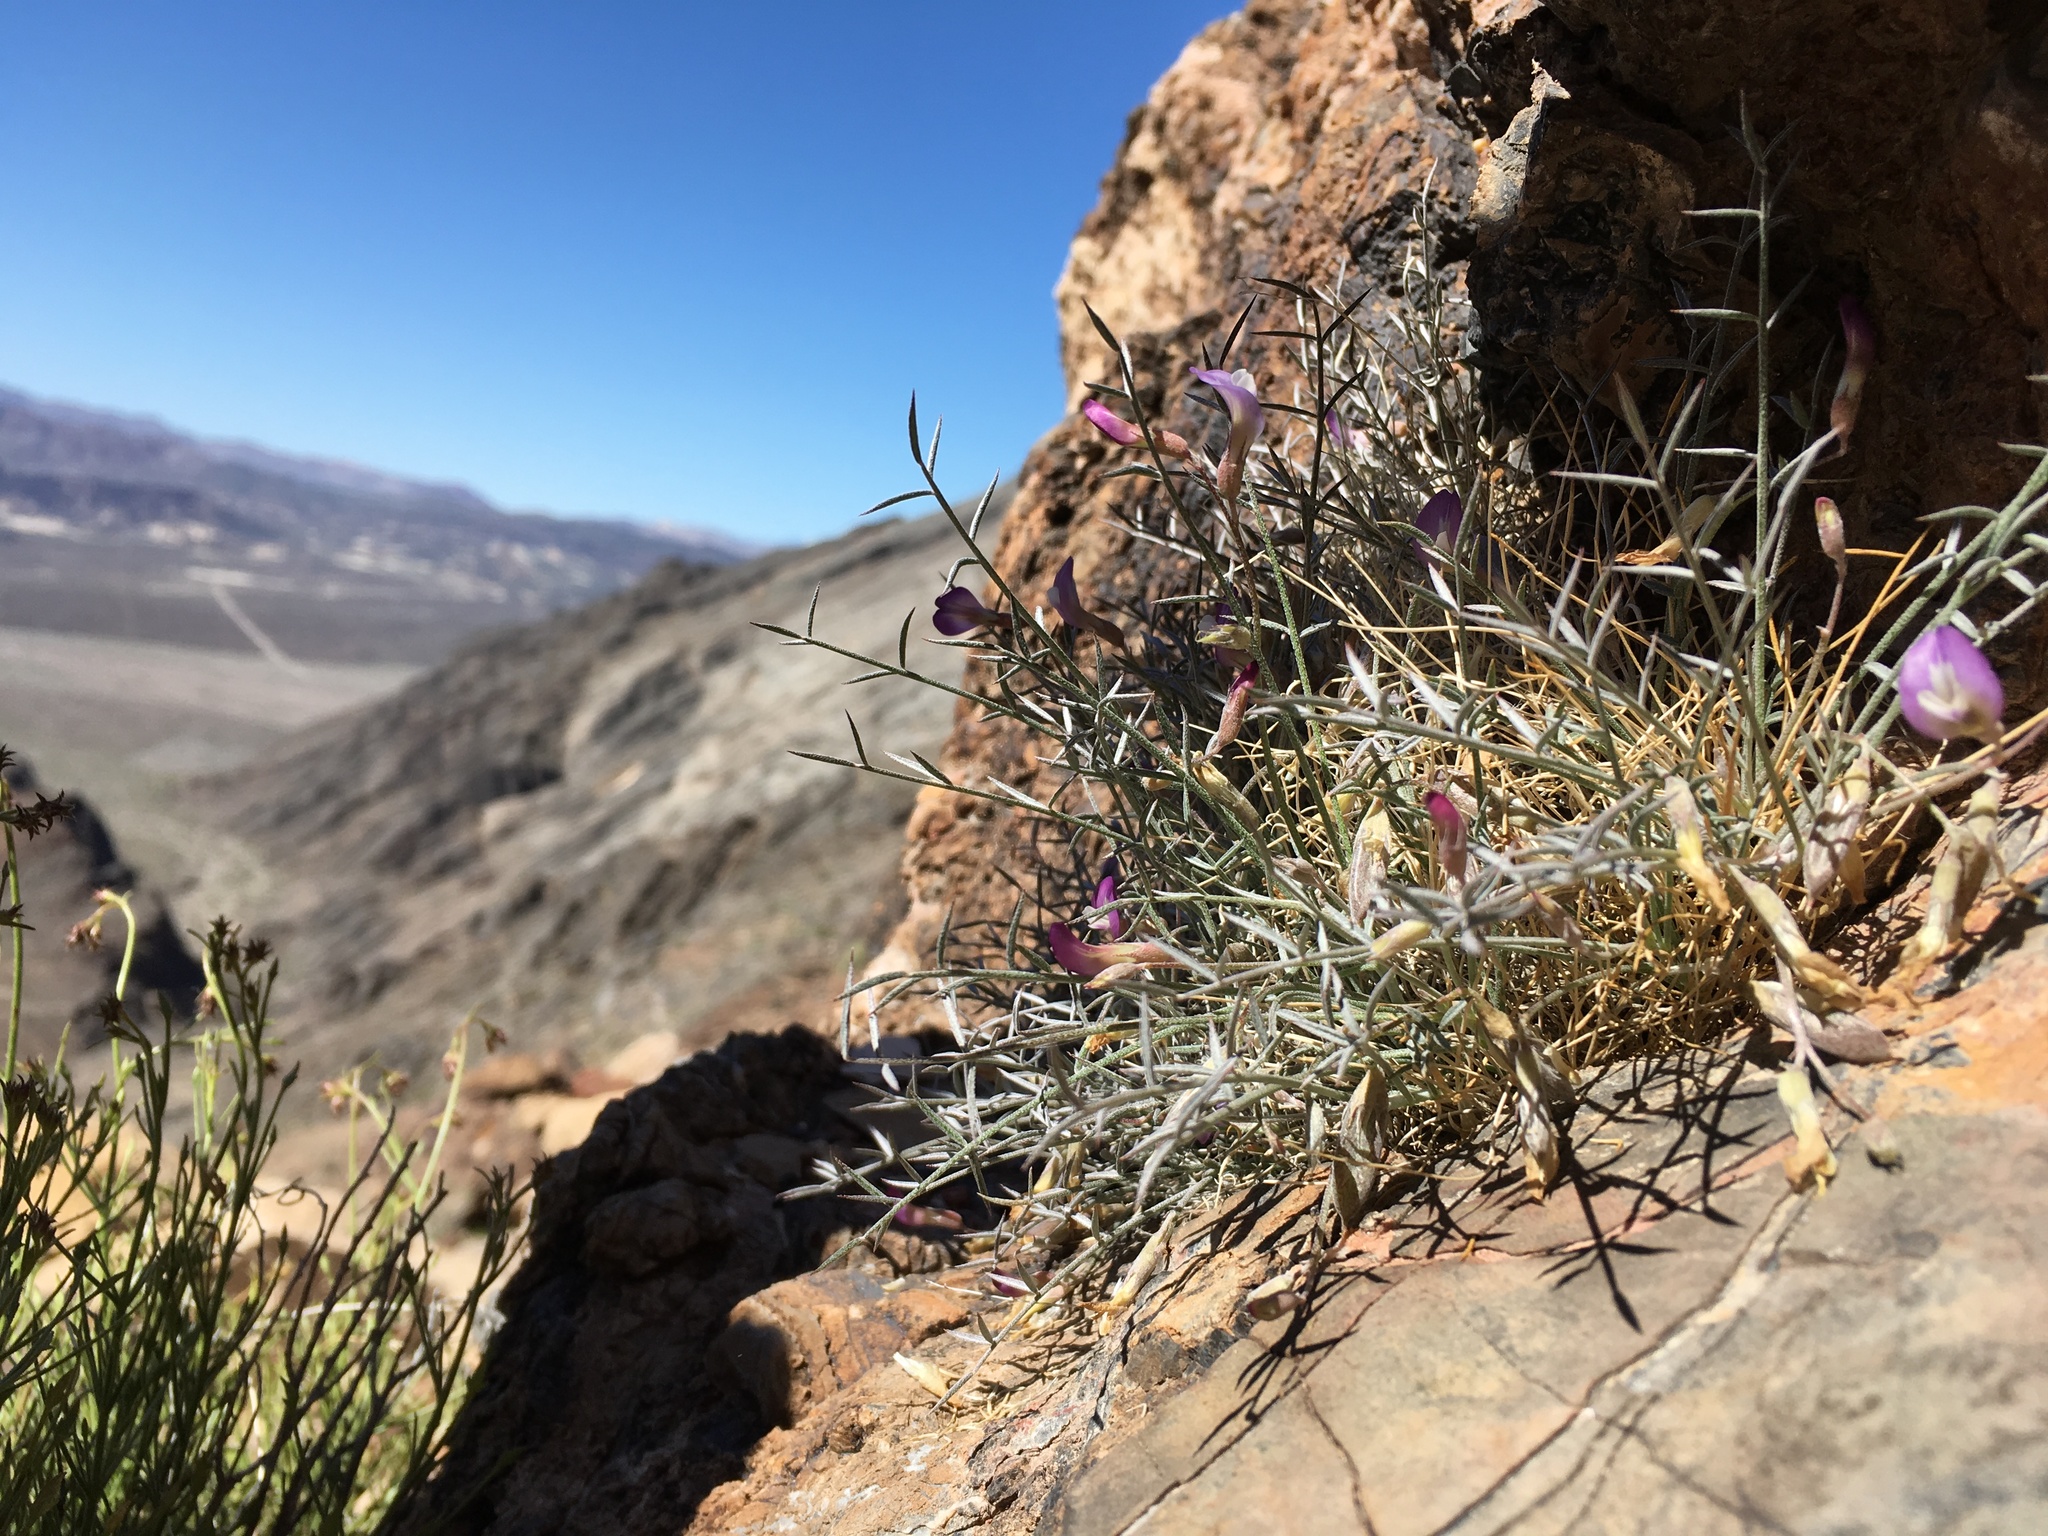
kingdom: Plantae
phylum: Tracheophyta
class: Magnoliopsida
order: Fabales
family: Fabaceae
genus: Astragalus
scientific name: Astragalus panamintensis
